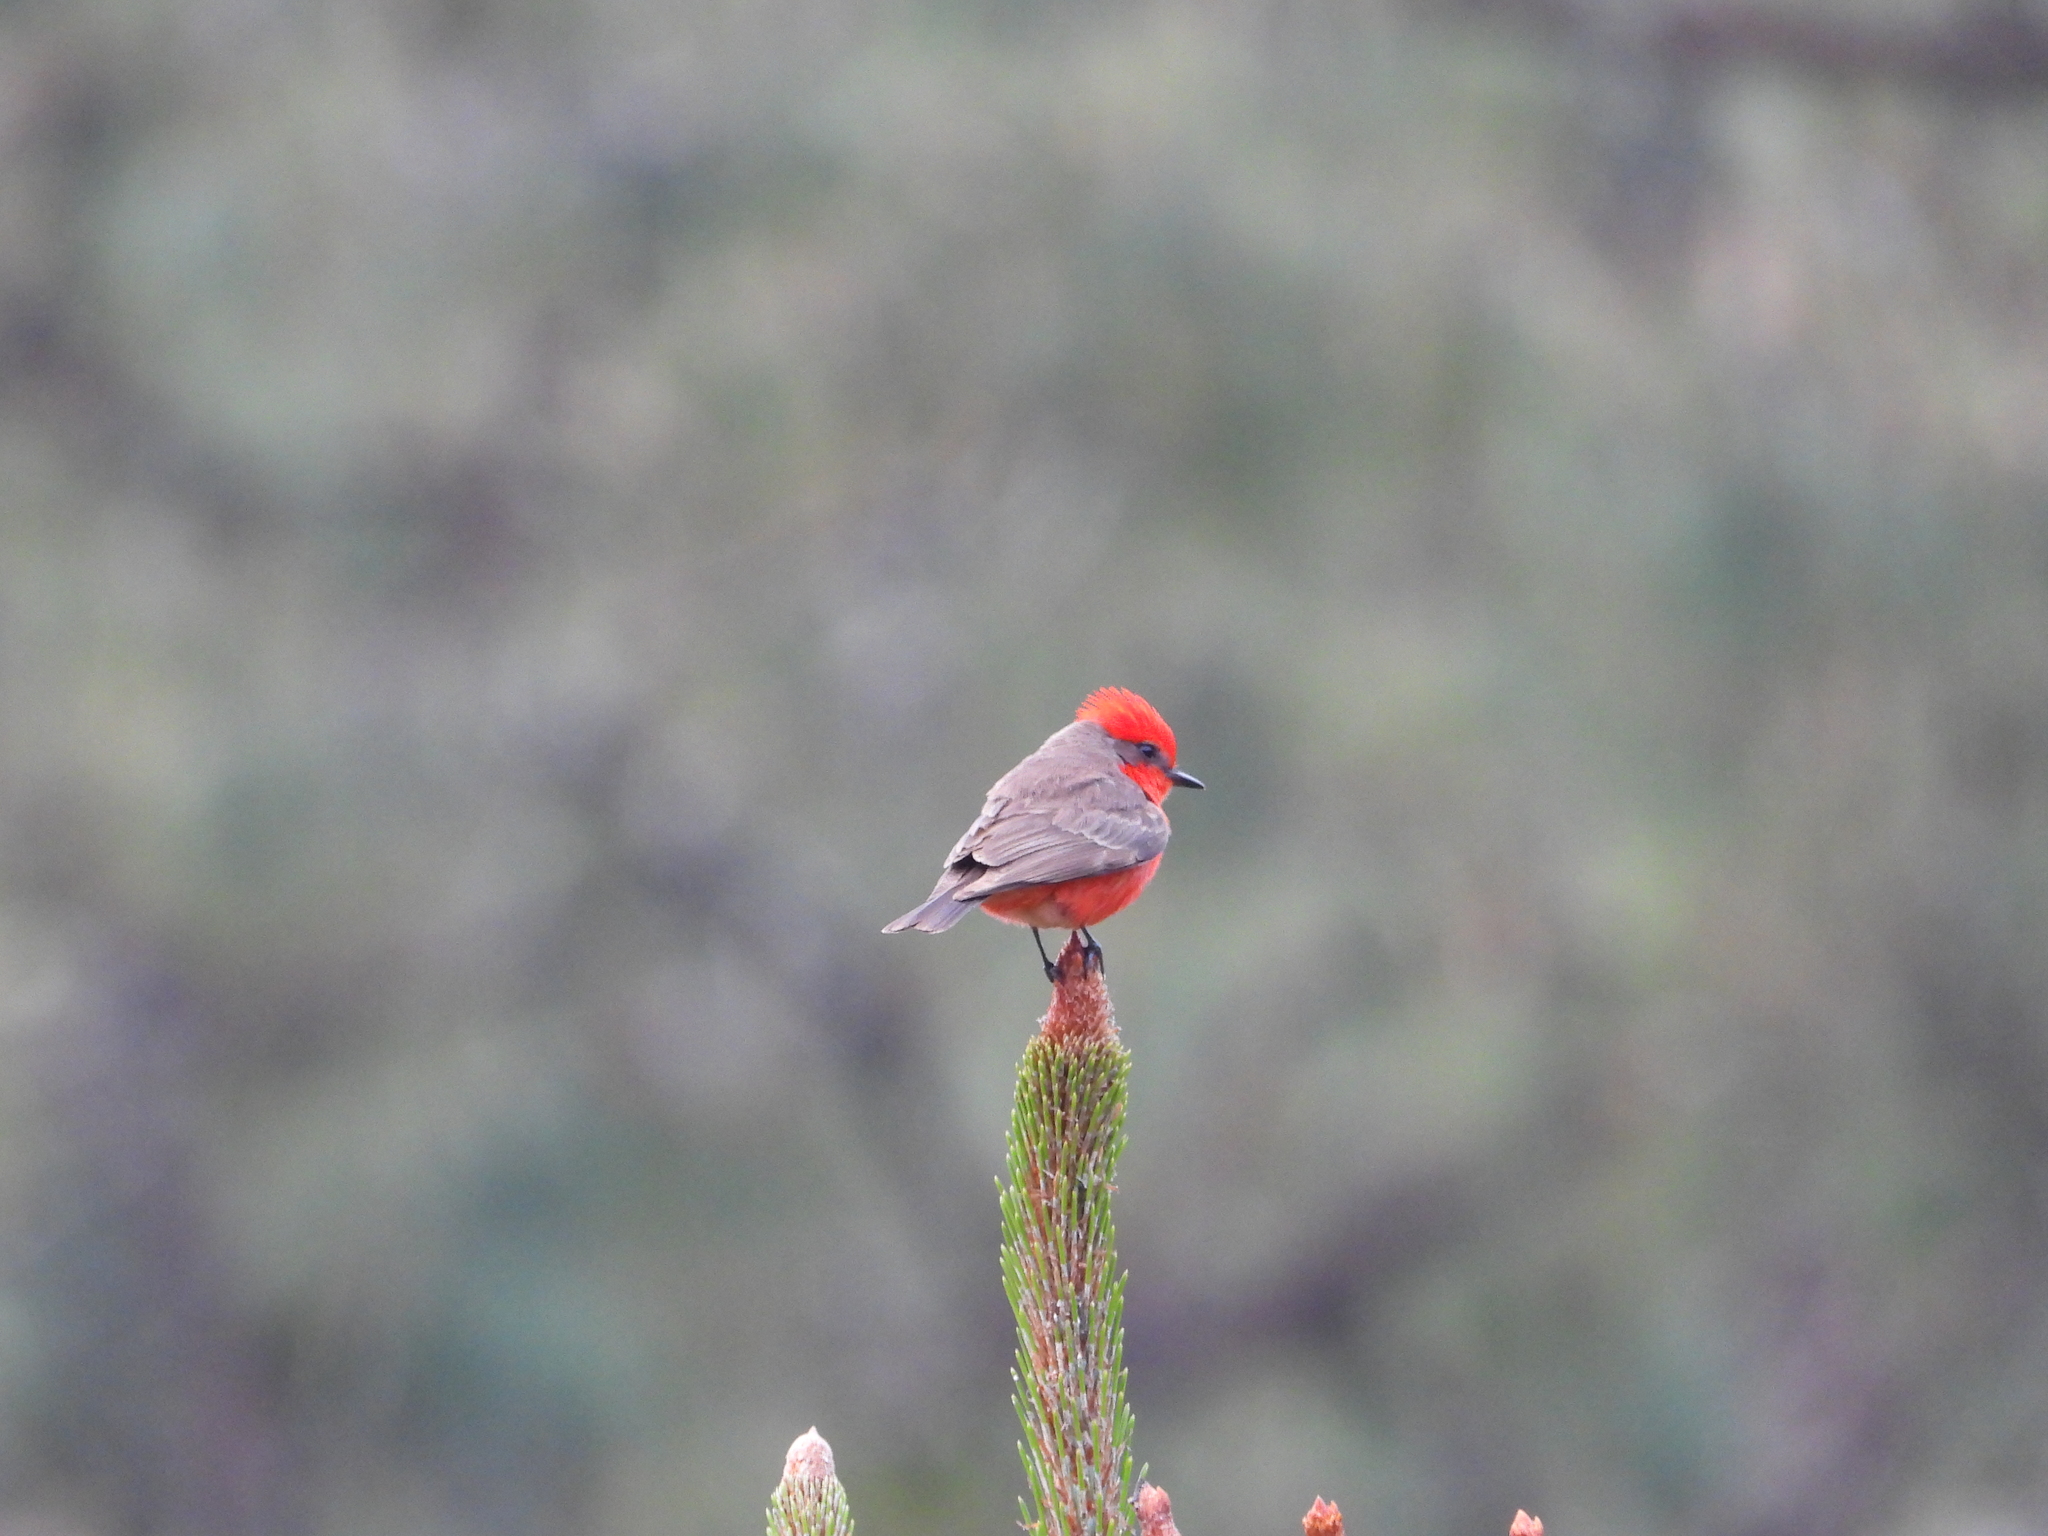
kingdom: Animalia
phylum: Chordata
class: Aves
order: Passeriformes
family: Tyrannidae
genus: Pyrocephalus
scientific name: Pyrocephalus rubinus
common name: Vermilion flycatcher
